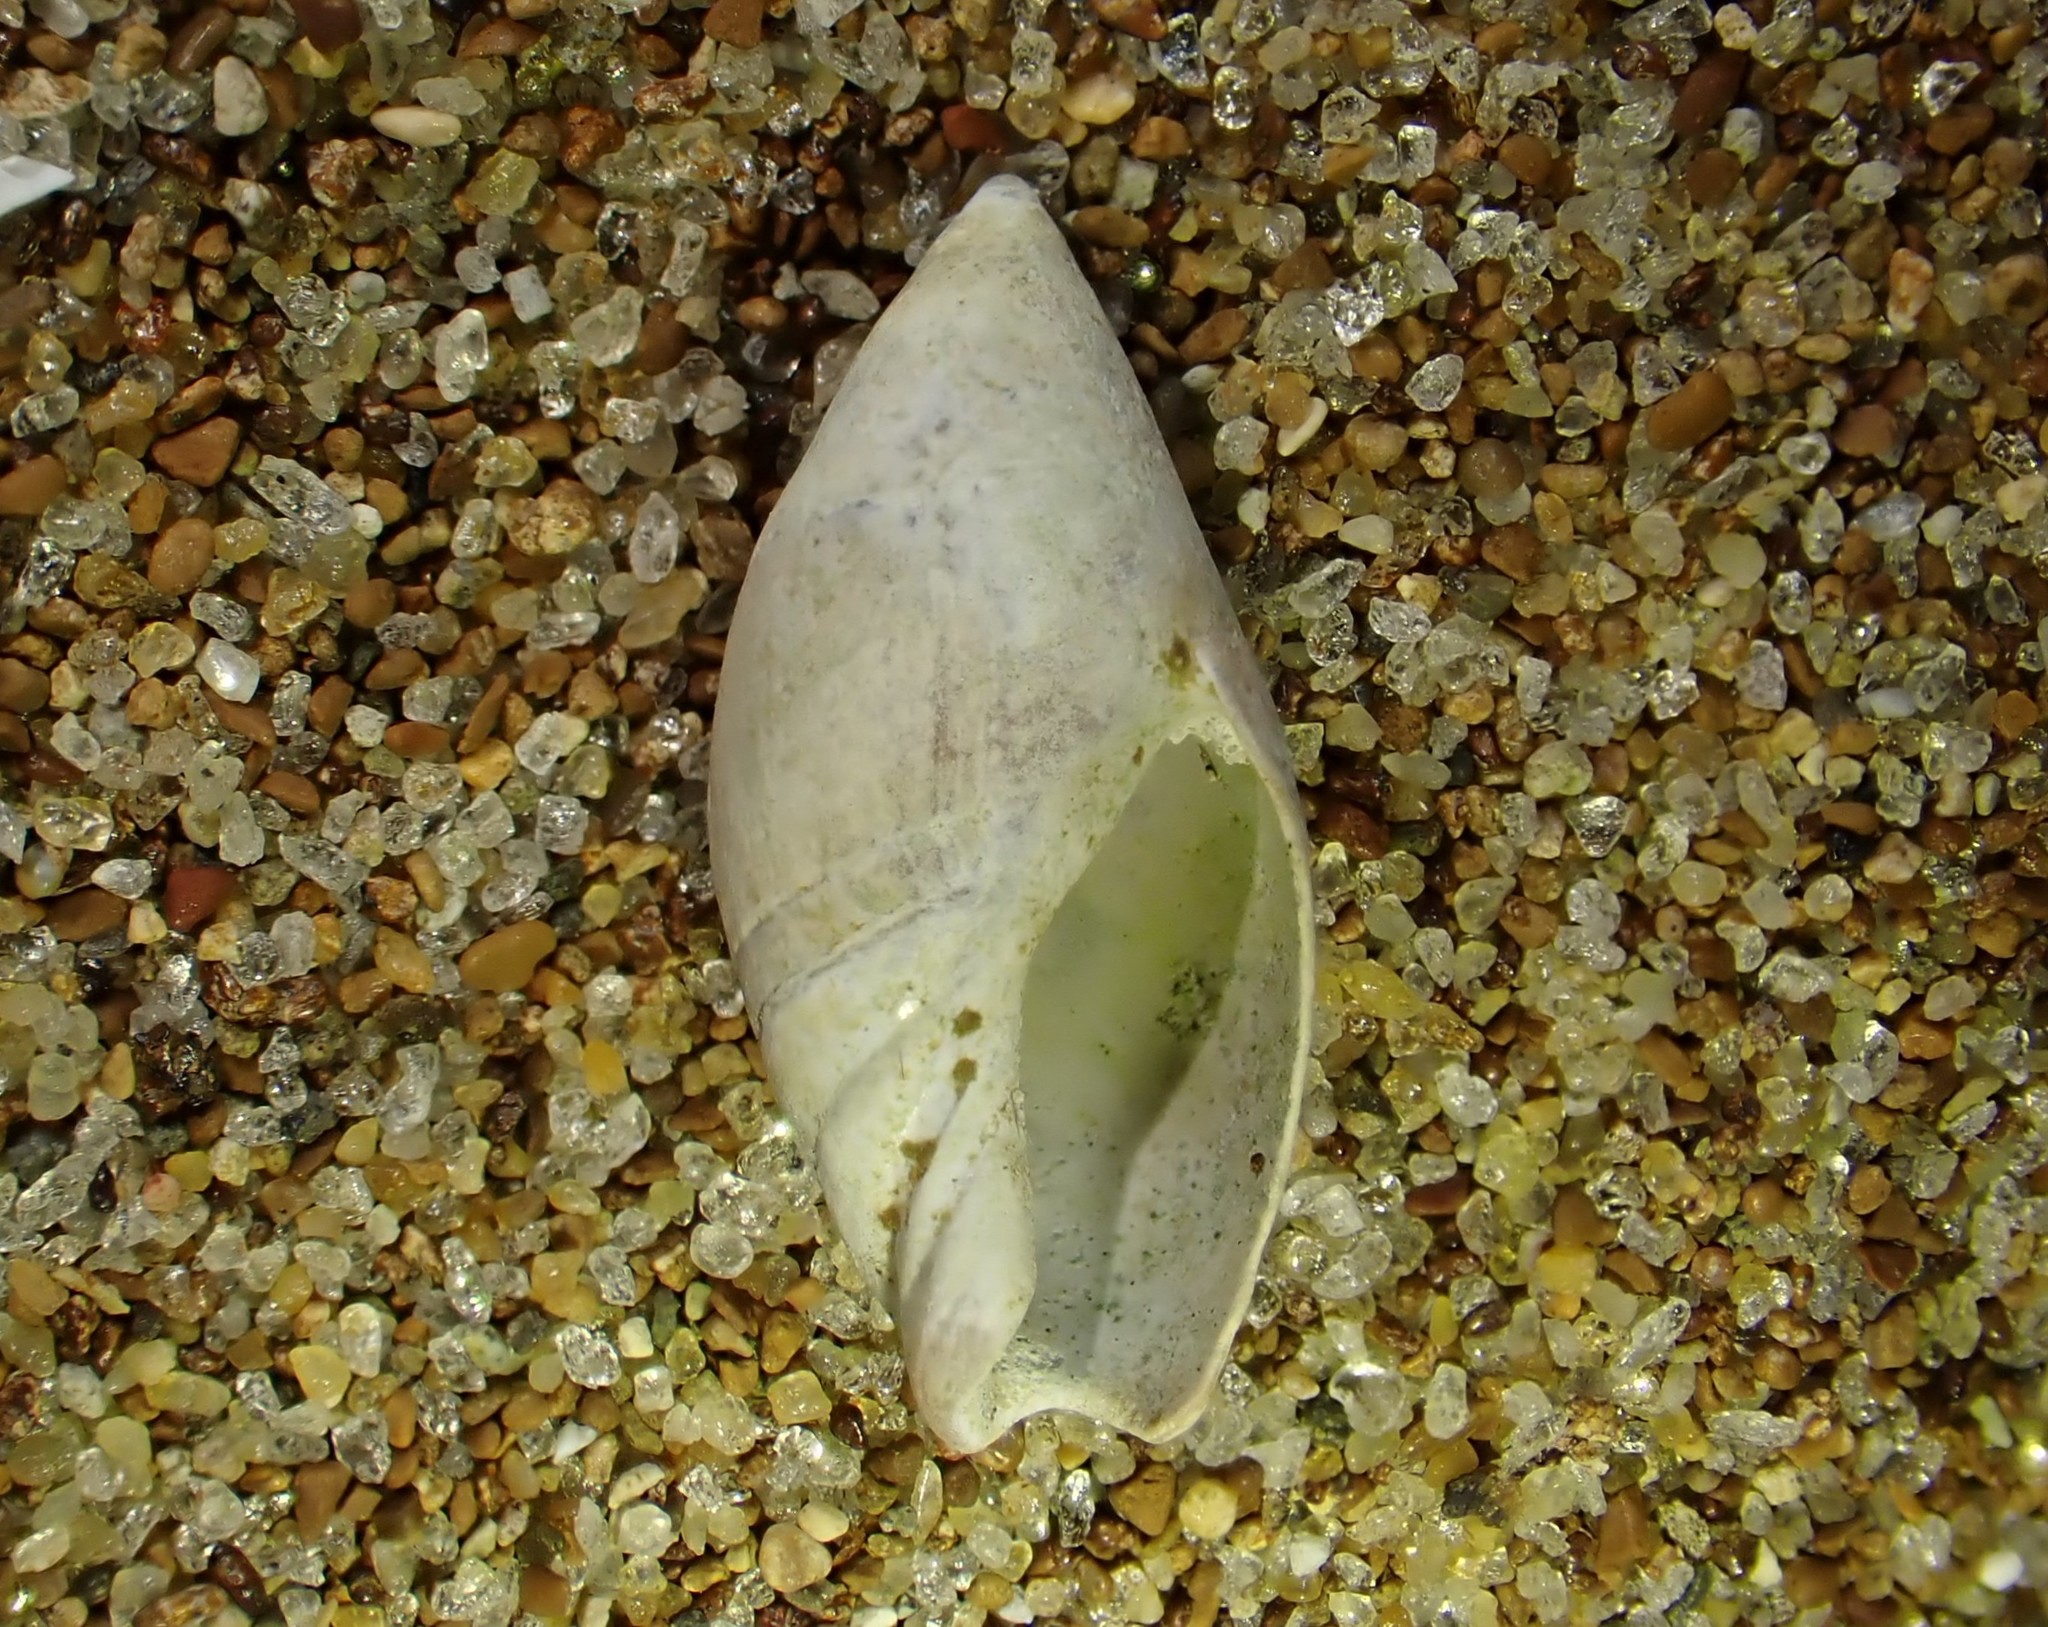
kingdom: Animalia
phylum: Mollusca
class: Gastropoda
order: Neogastropoda
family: Ancillariidae
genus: Amalda
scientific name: Amalda australis
